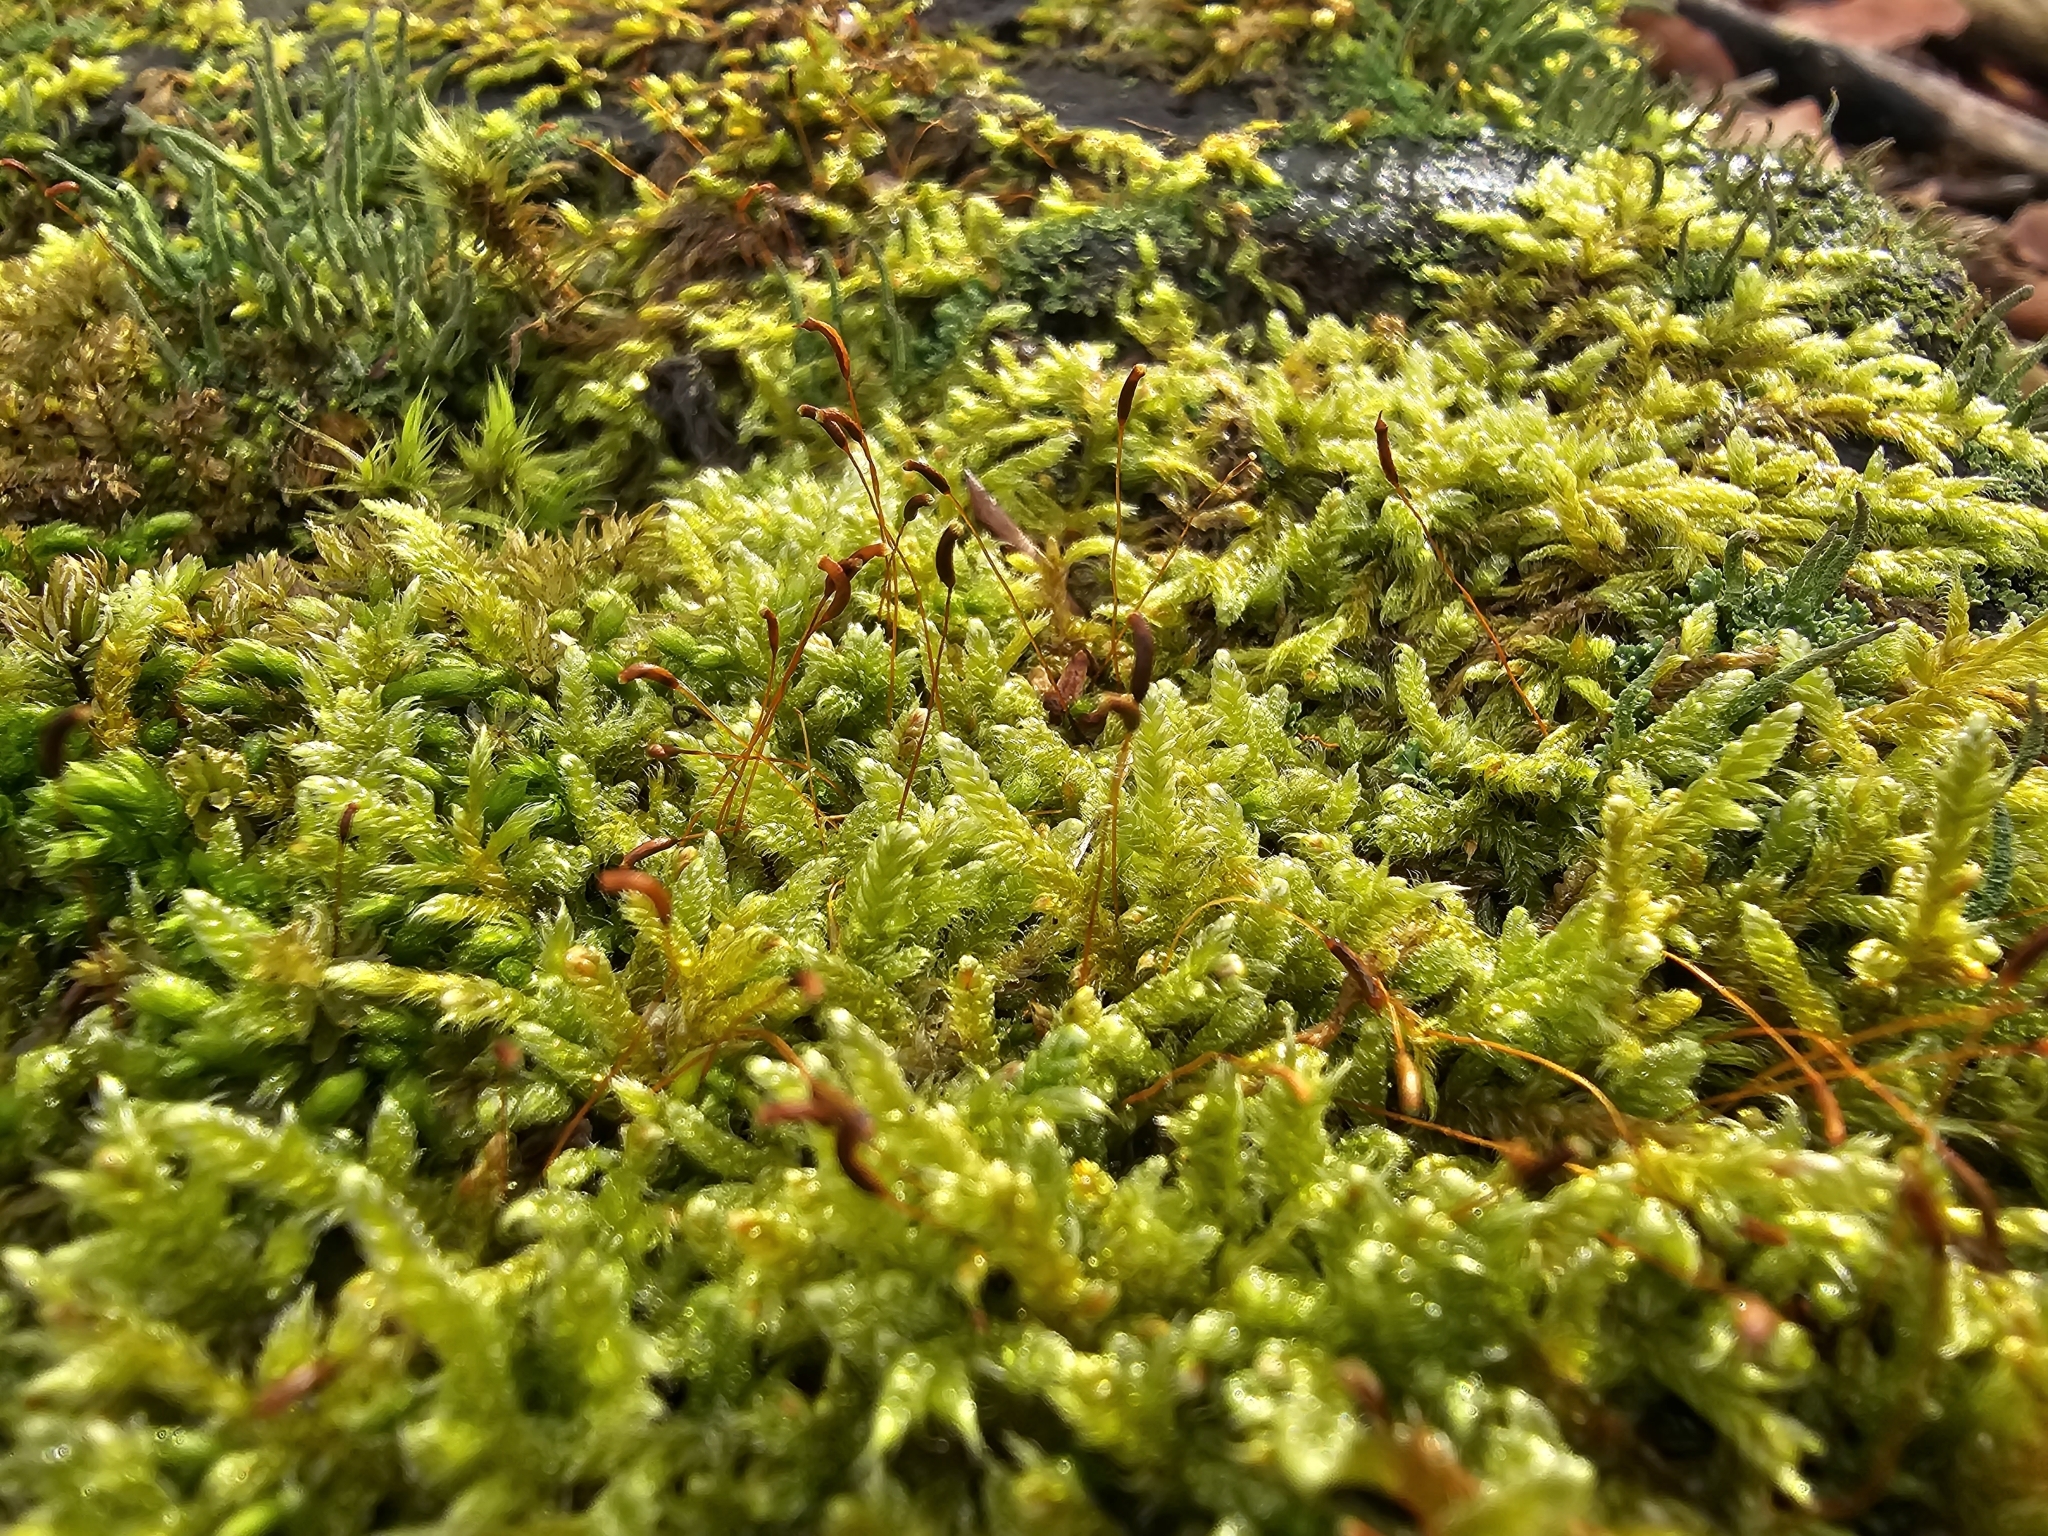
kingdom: Plantae
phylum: Bryophyta
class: Bryopsida
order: Hypnales
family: Hypnaceae
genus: Hypnum
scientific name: Hypnum cupressiforme
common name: Cypress-leaved plait-moss
